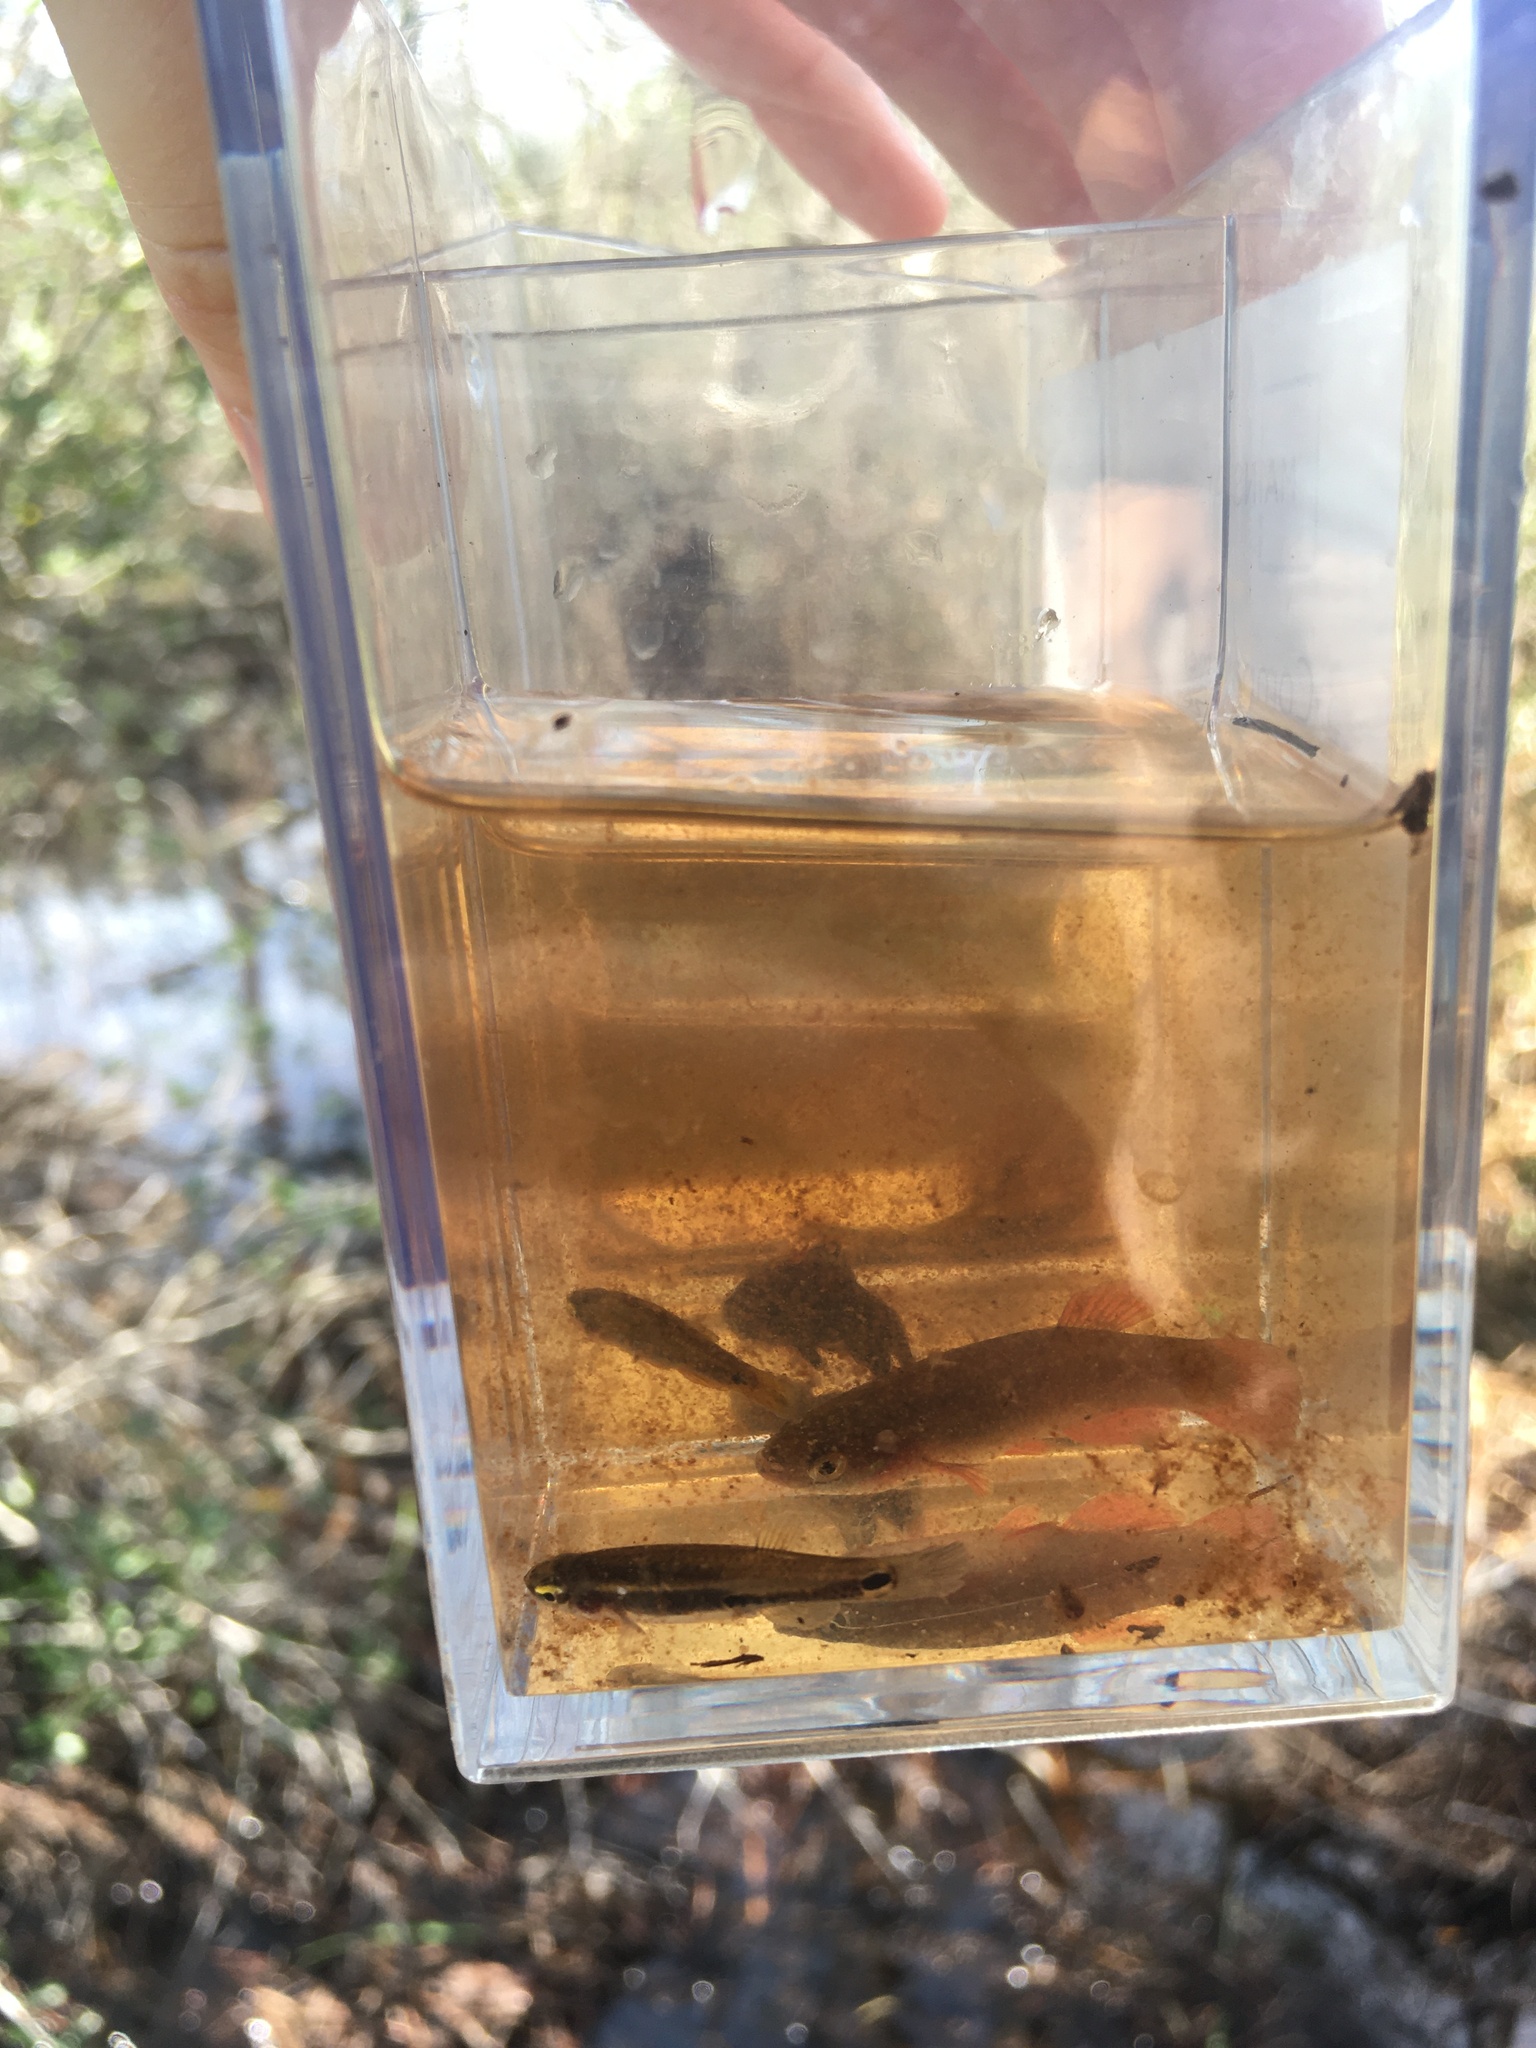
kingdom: Animalia
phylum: Chordata
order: Cyprinodontiformes
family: Fundulidae
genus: Leptolucania
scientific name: Leptolucania ommata
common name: Pygmy killifish
